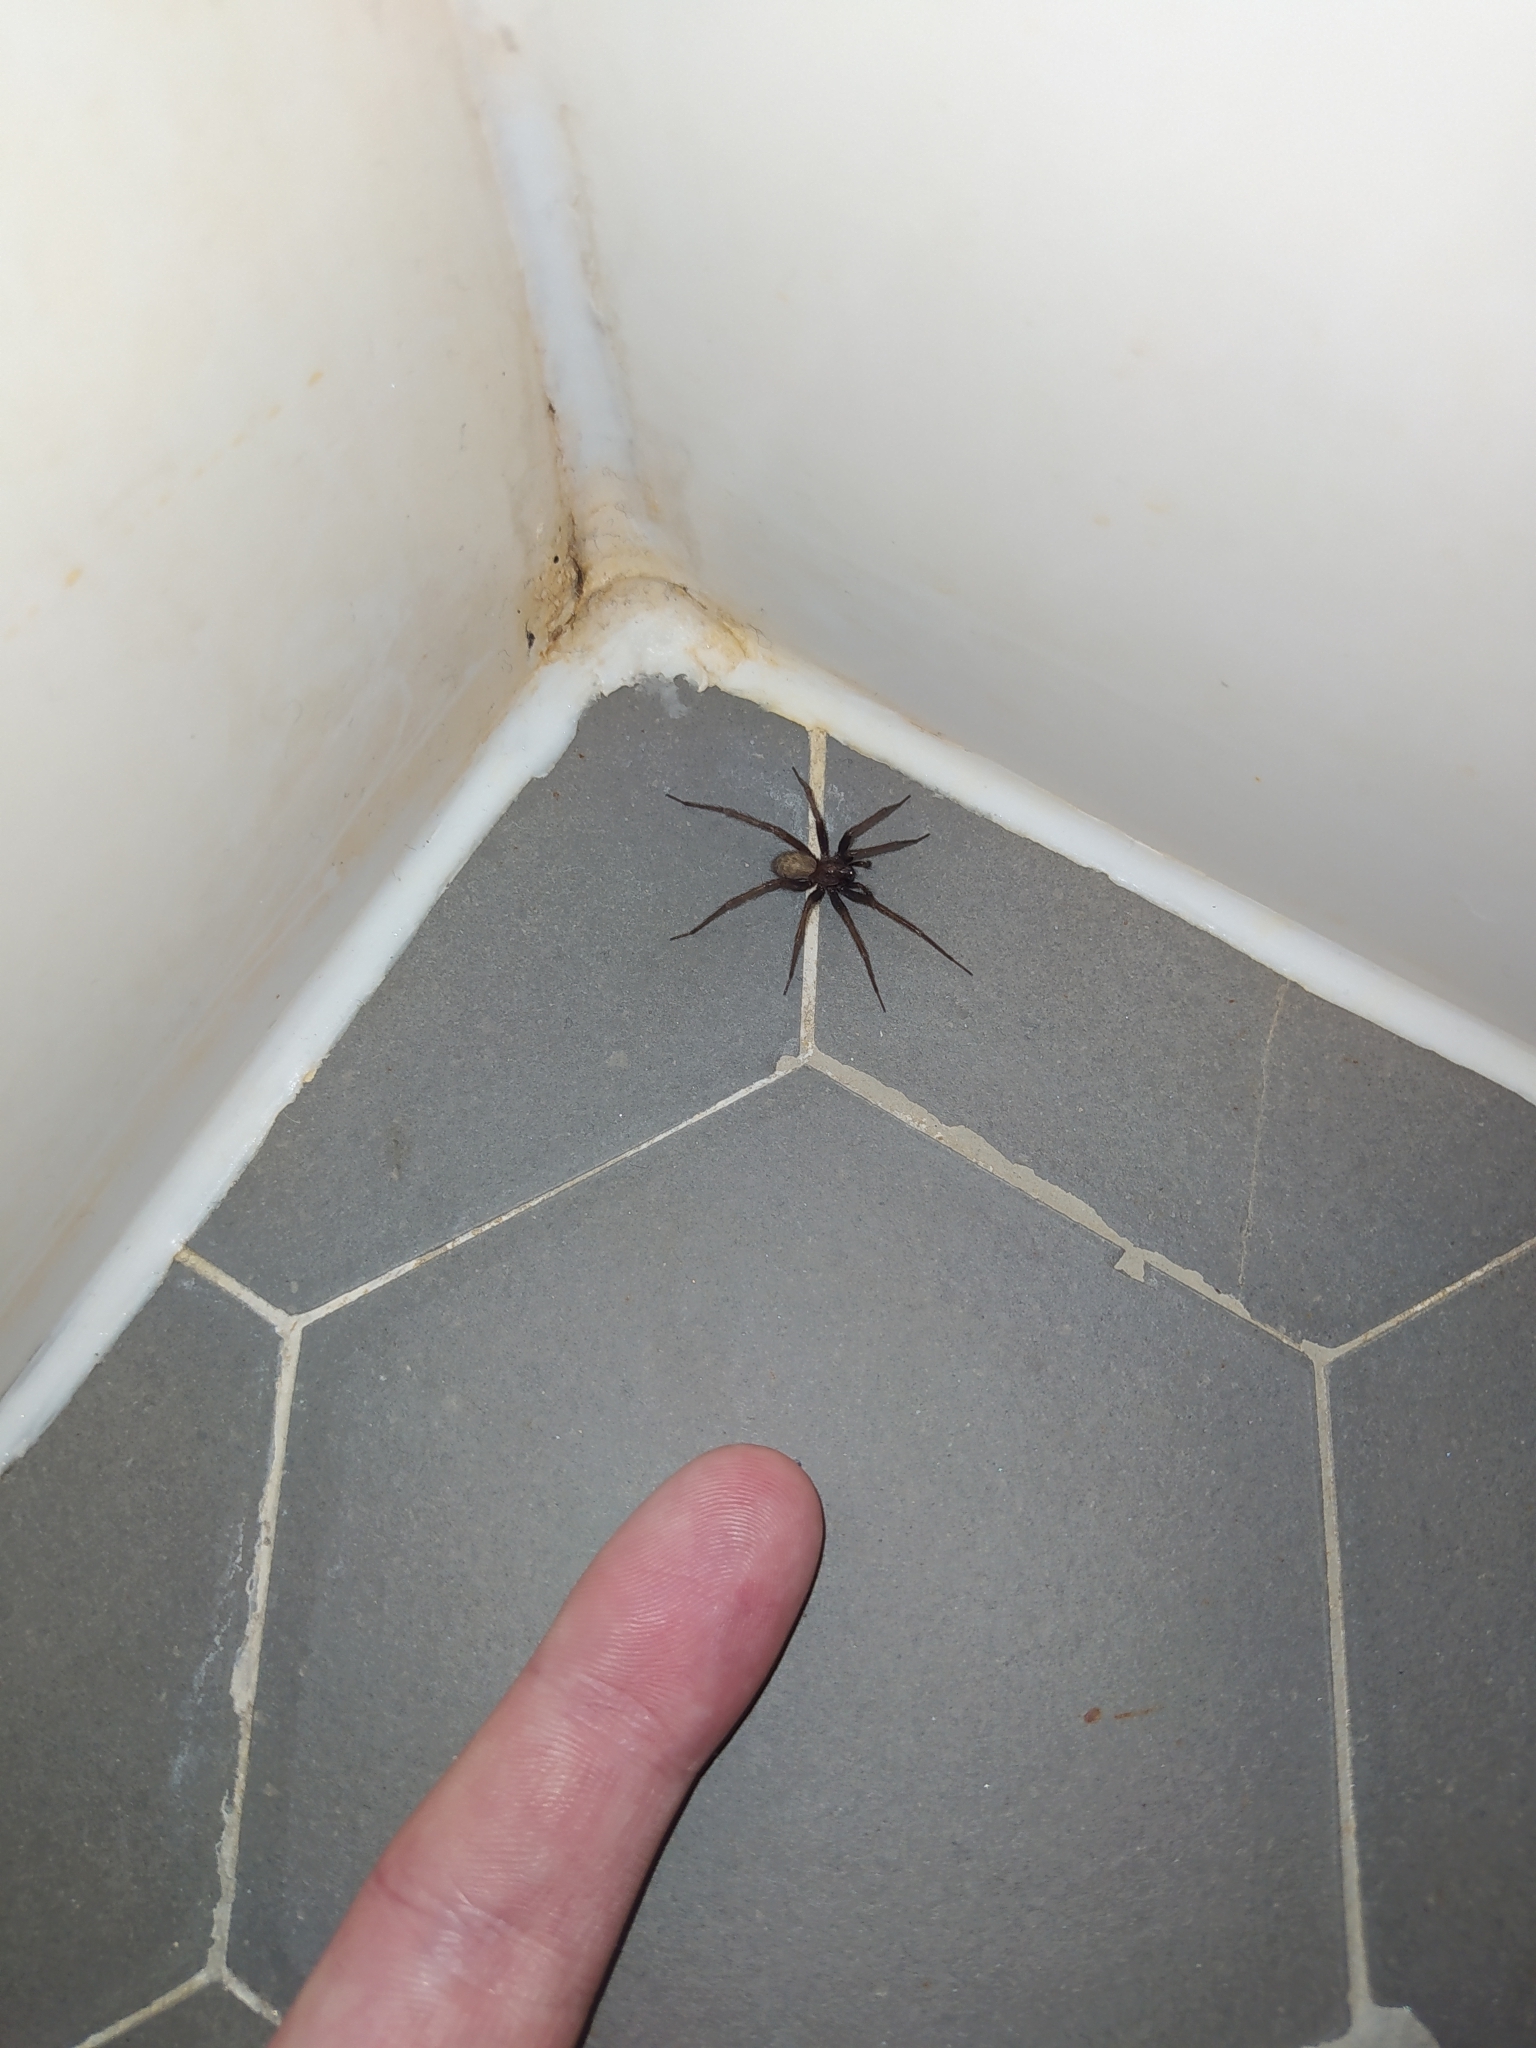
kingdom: Animalia
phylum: Arthropoda
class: Arachnida
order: Araneae
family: Agelenidae
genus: Tegenaria
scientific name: Tegenaria domestica
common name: Barn funnel weaver
